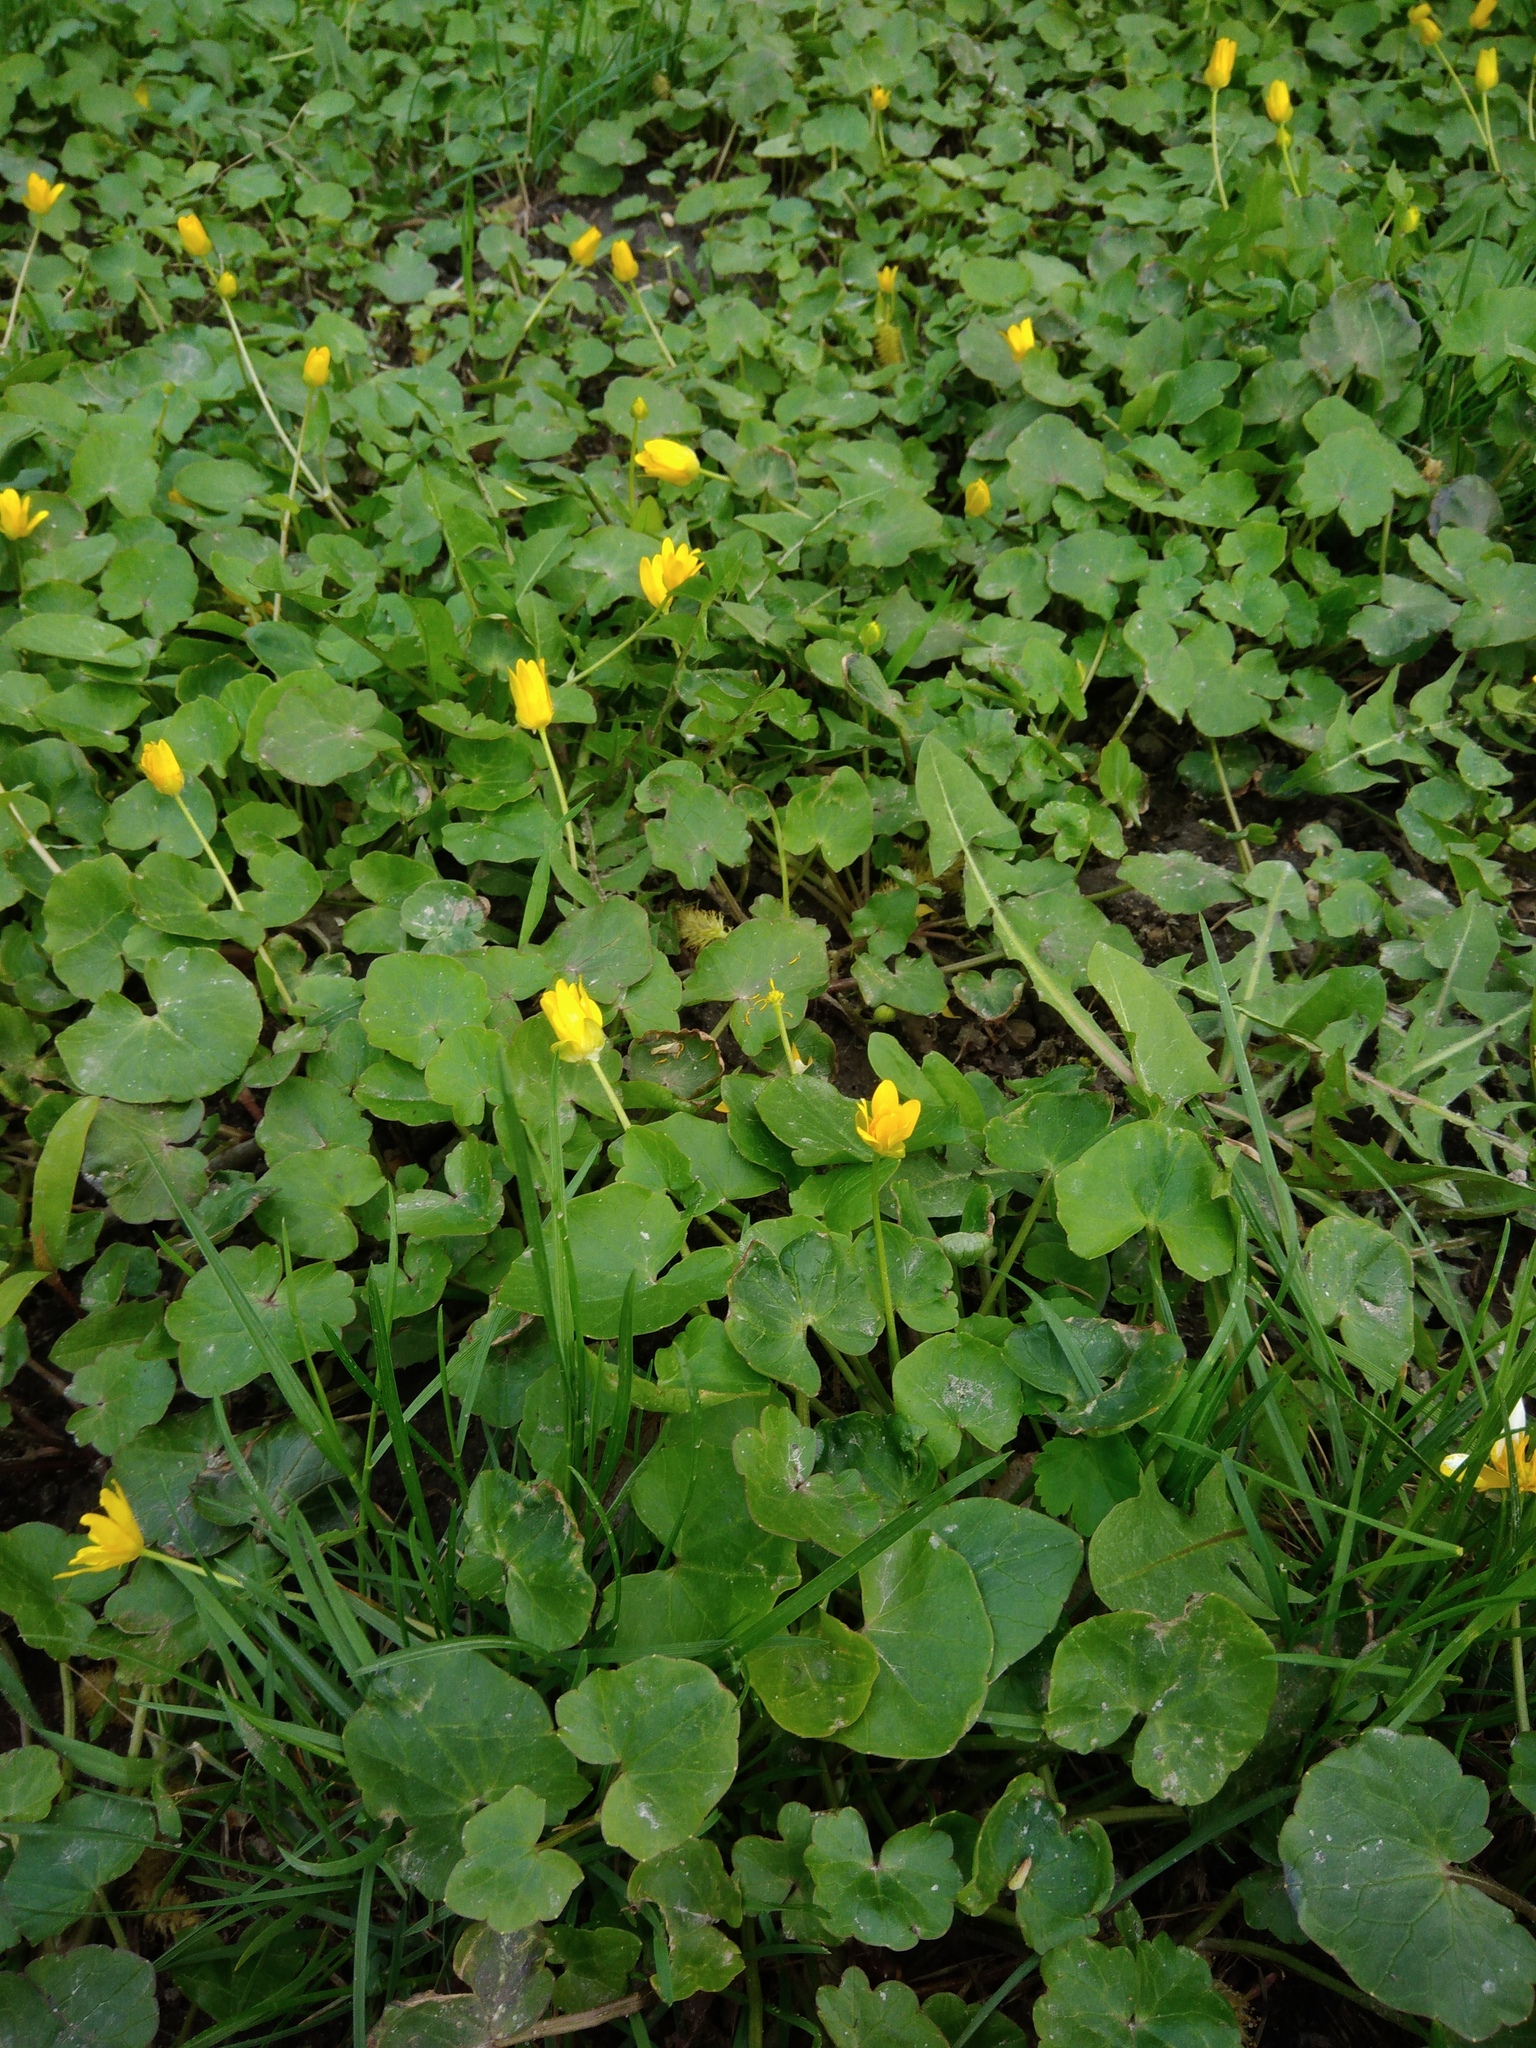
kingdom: Plantae
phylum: Tracheophyta
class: Magnoliopsida
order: Ranunculales
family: Ranunculaceae
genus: Ficaria
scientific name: Ficaria verna
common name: Lesser celandine
